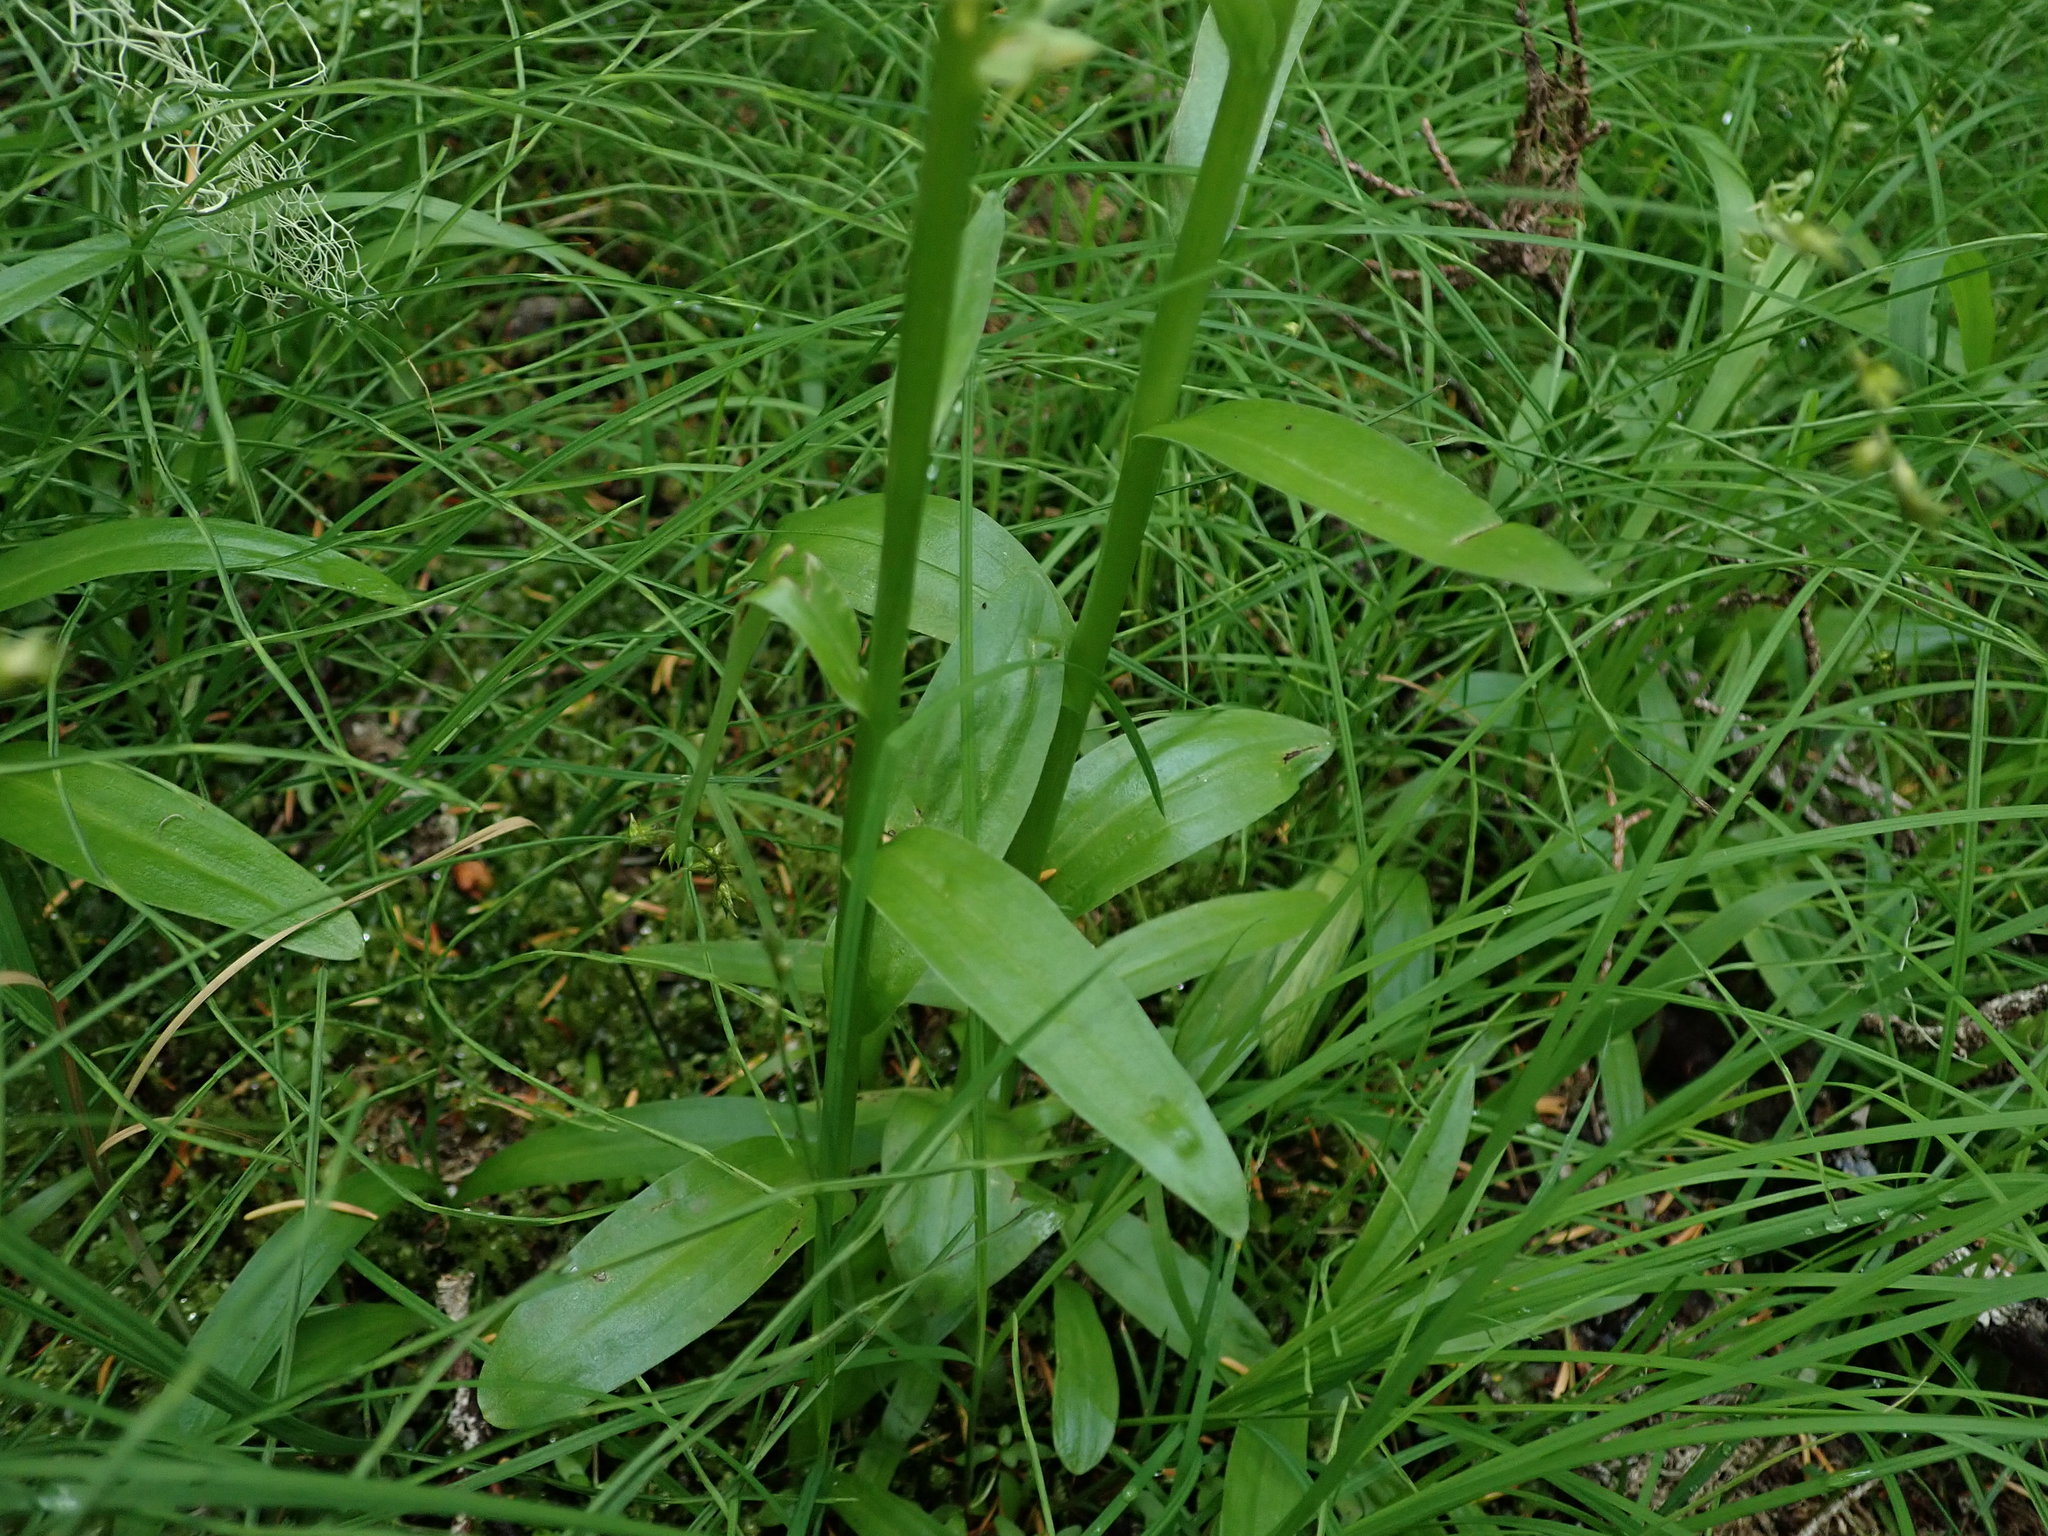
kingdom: Plantae
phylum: Tracheophyta
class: Liliopsida
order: Asparagales
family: Orchidaceae
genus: Platanthera
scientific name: Platanthera stricta
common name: Slender bog orchid
